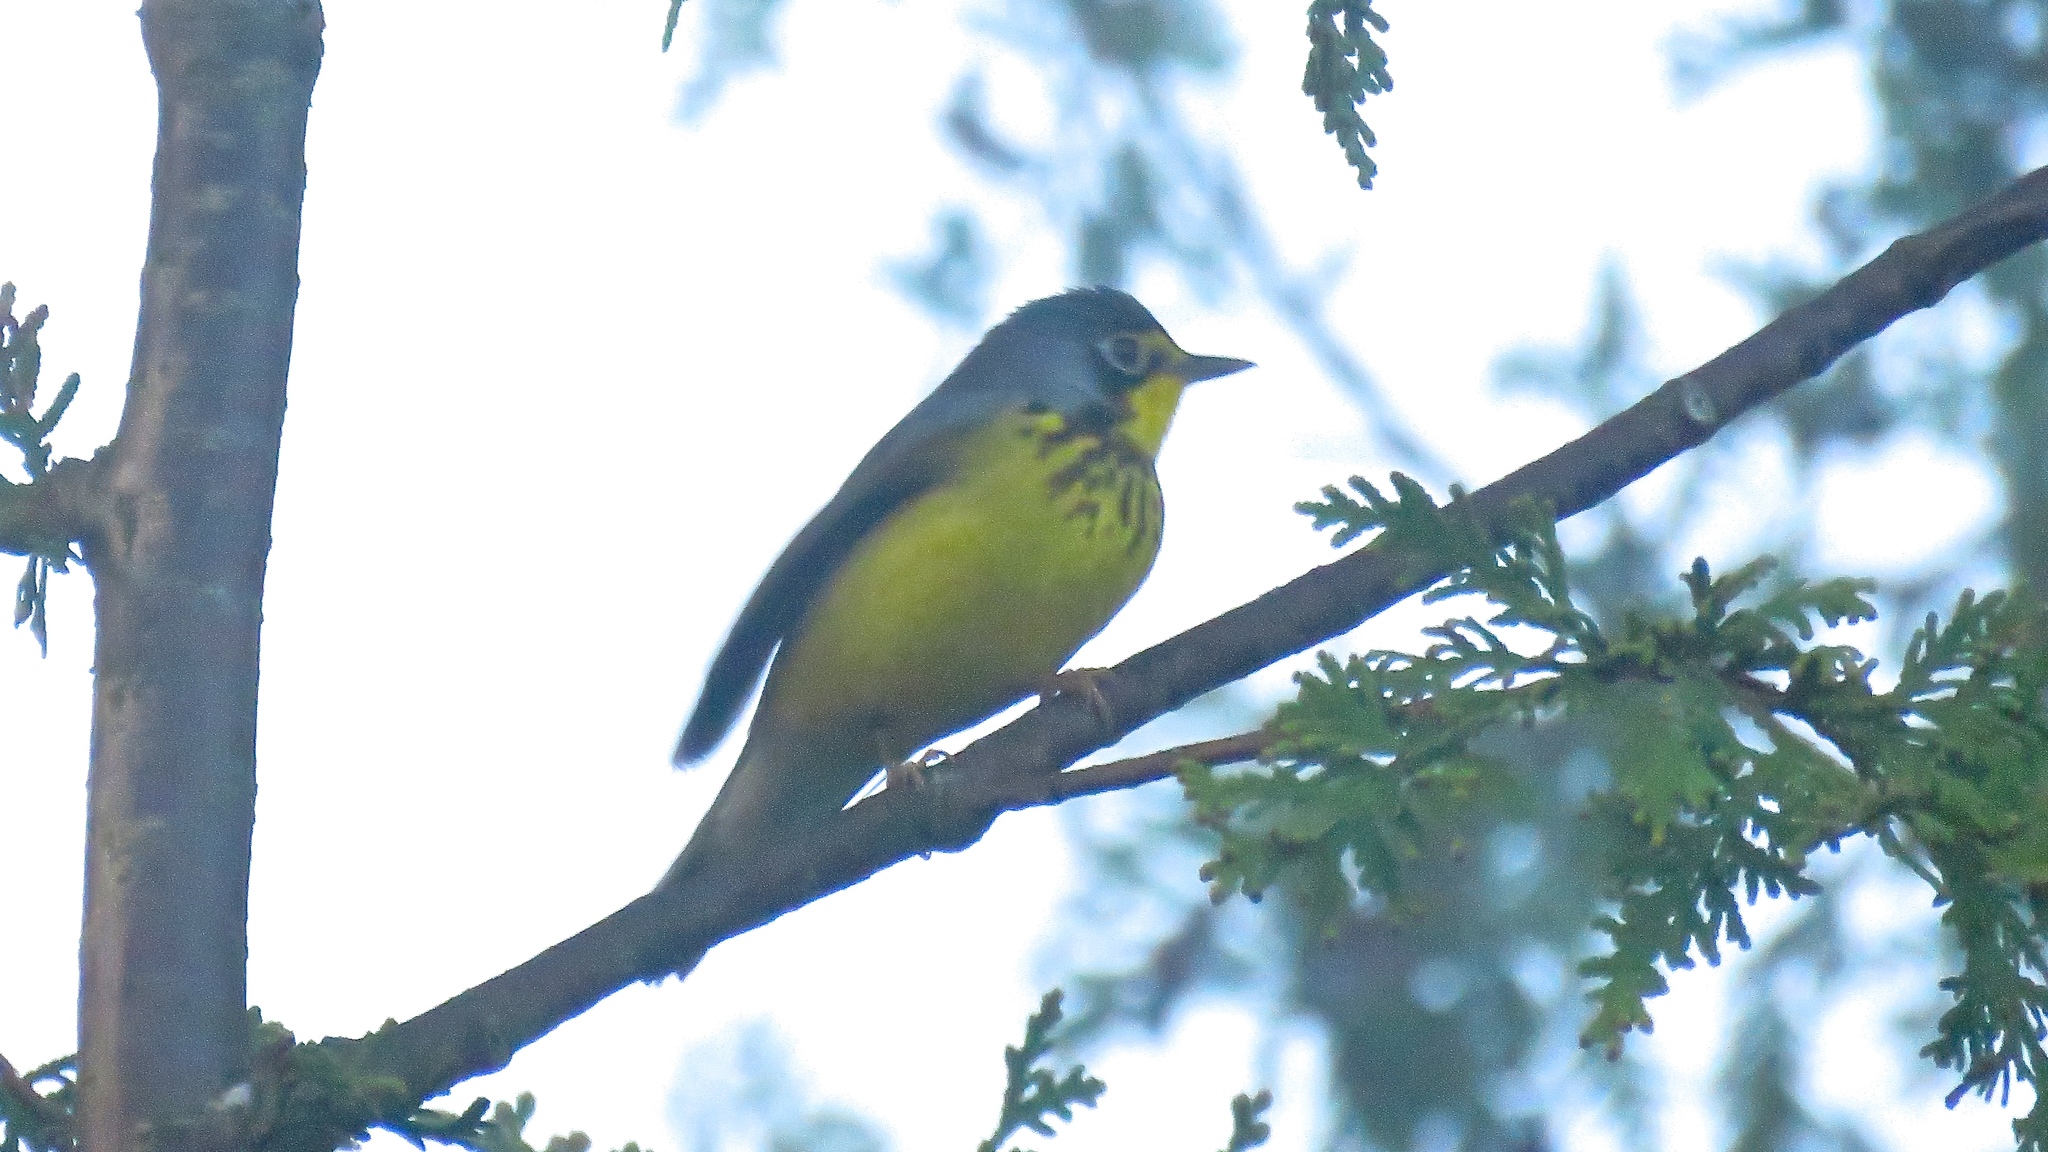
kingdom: Animalia
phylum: Chordata
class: Aves
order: Passeriformes
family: Parulidae
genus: Cardellina
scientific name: Cardellina canadensis
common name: Canada warbler
